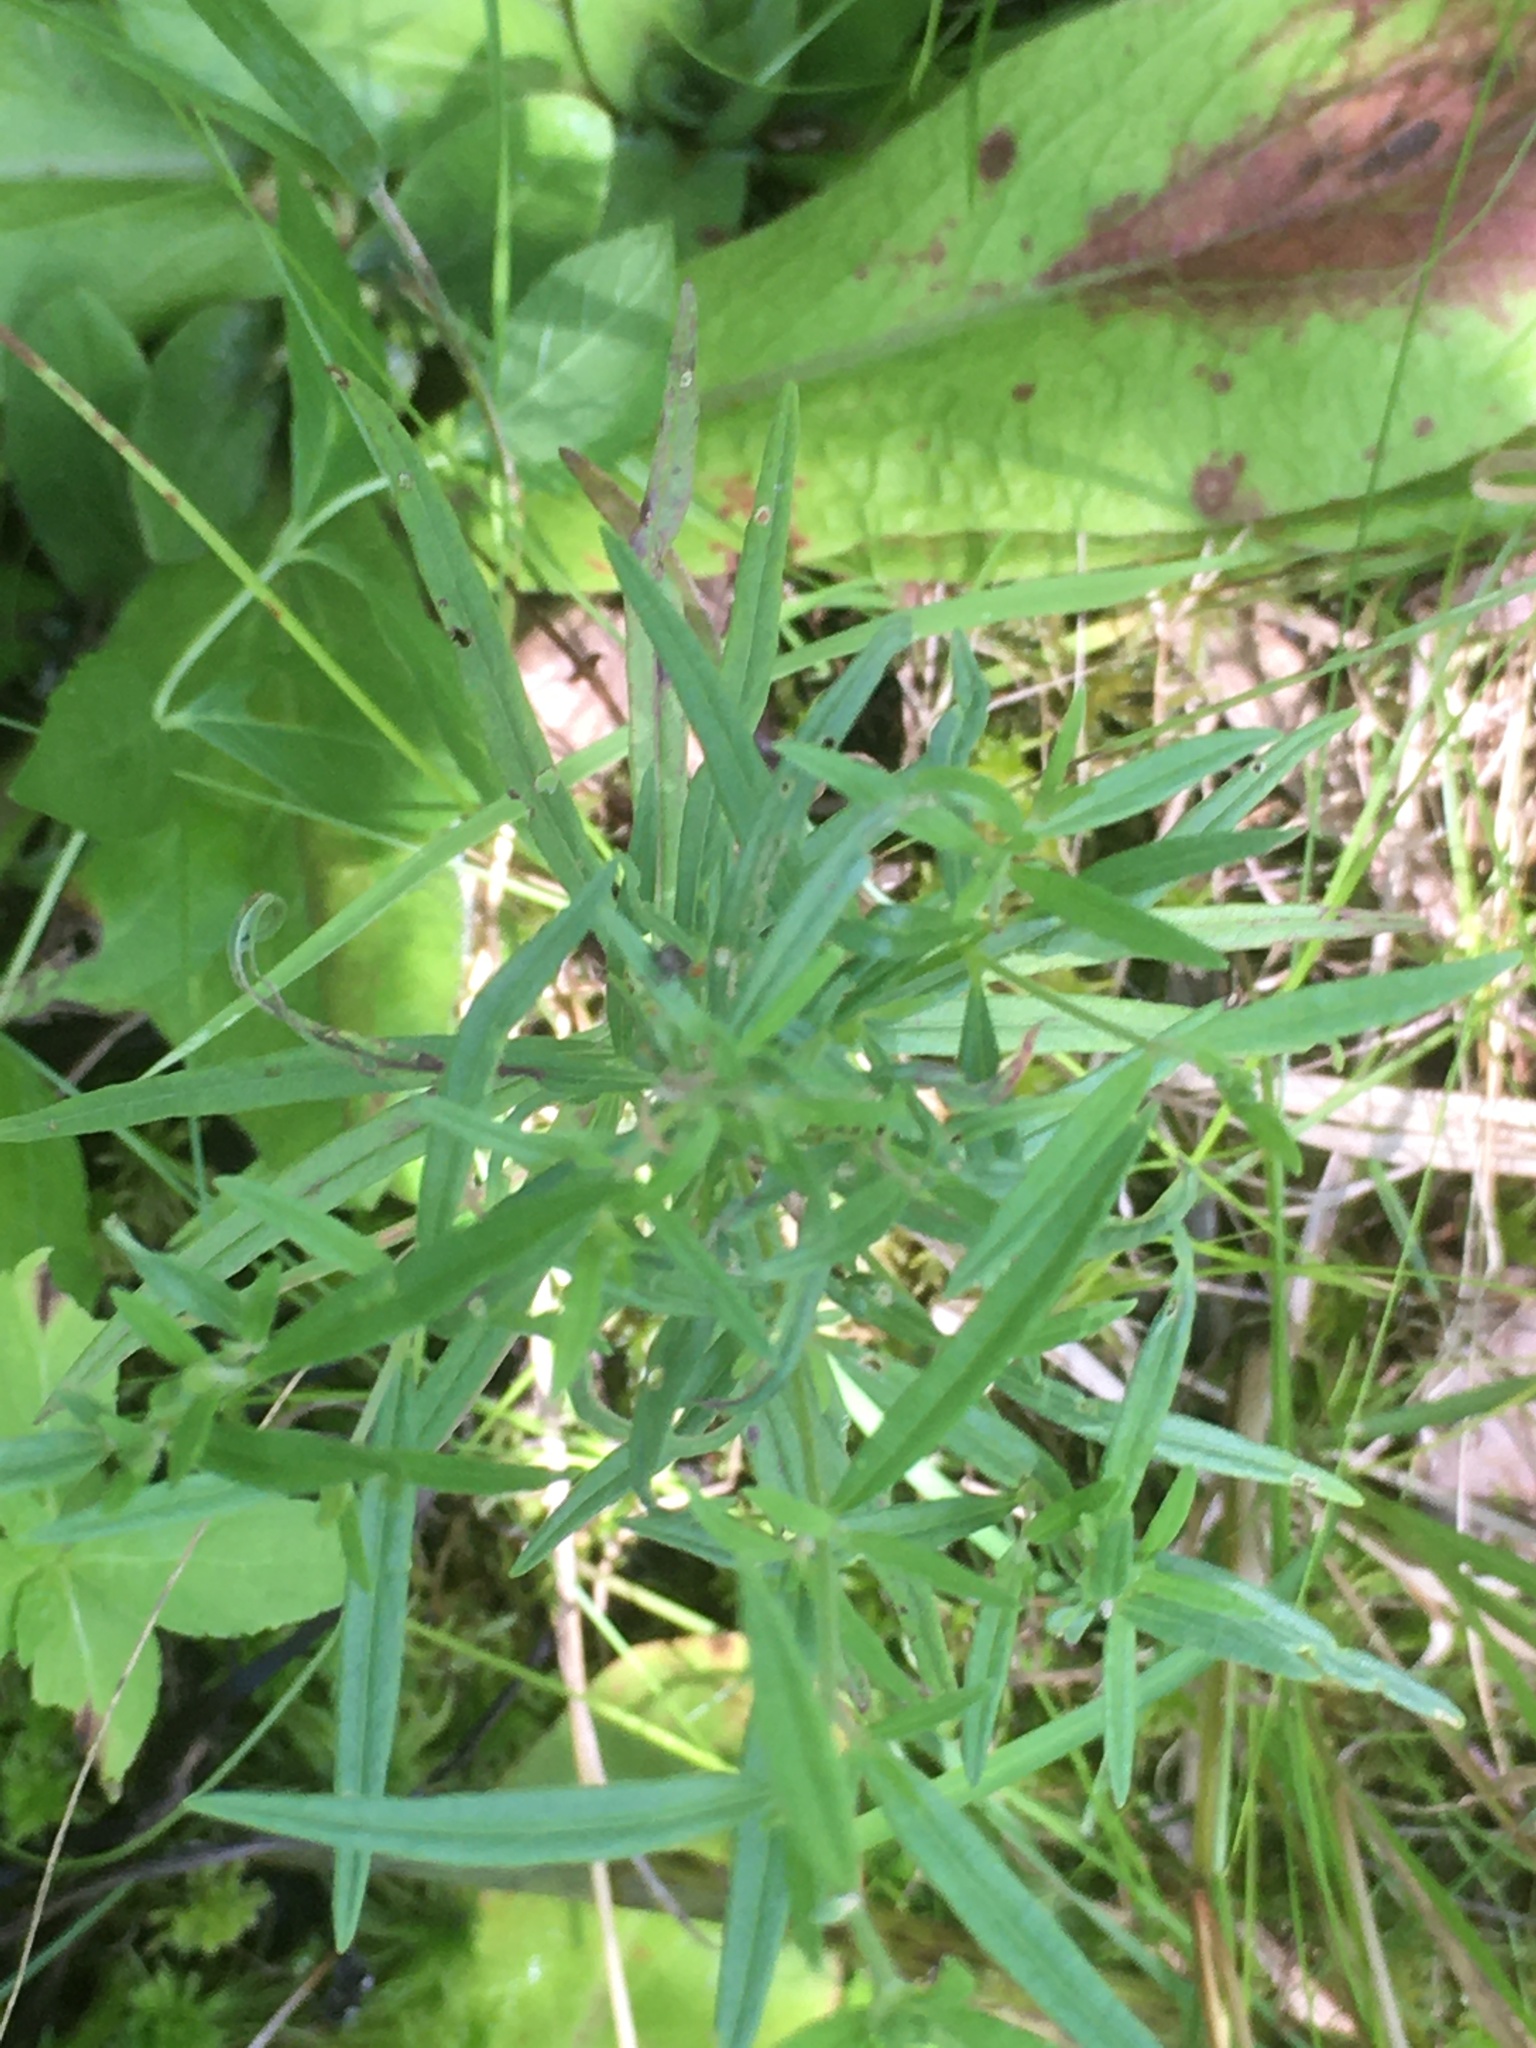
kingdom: Plantae
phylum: Tracheophyta
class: Magnoliopsida
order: Myrtales
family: Onagraceae
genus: Epilobium
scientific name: Epilobium leptophyllum
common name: Bog willowherb
